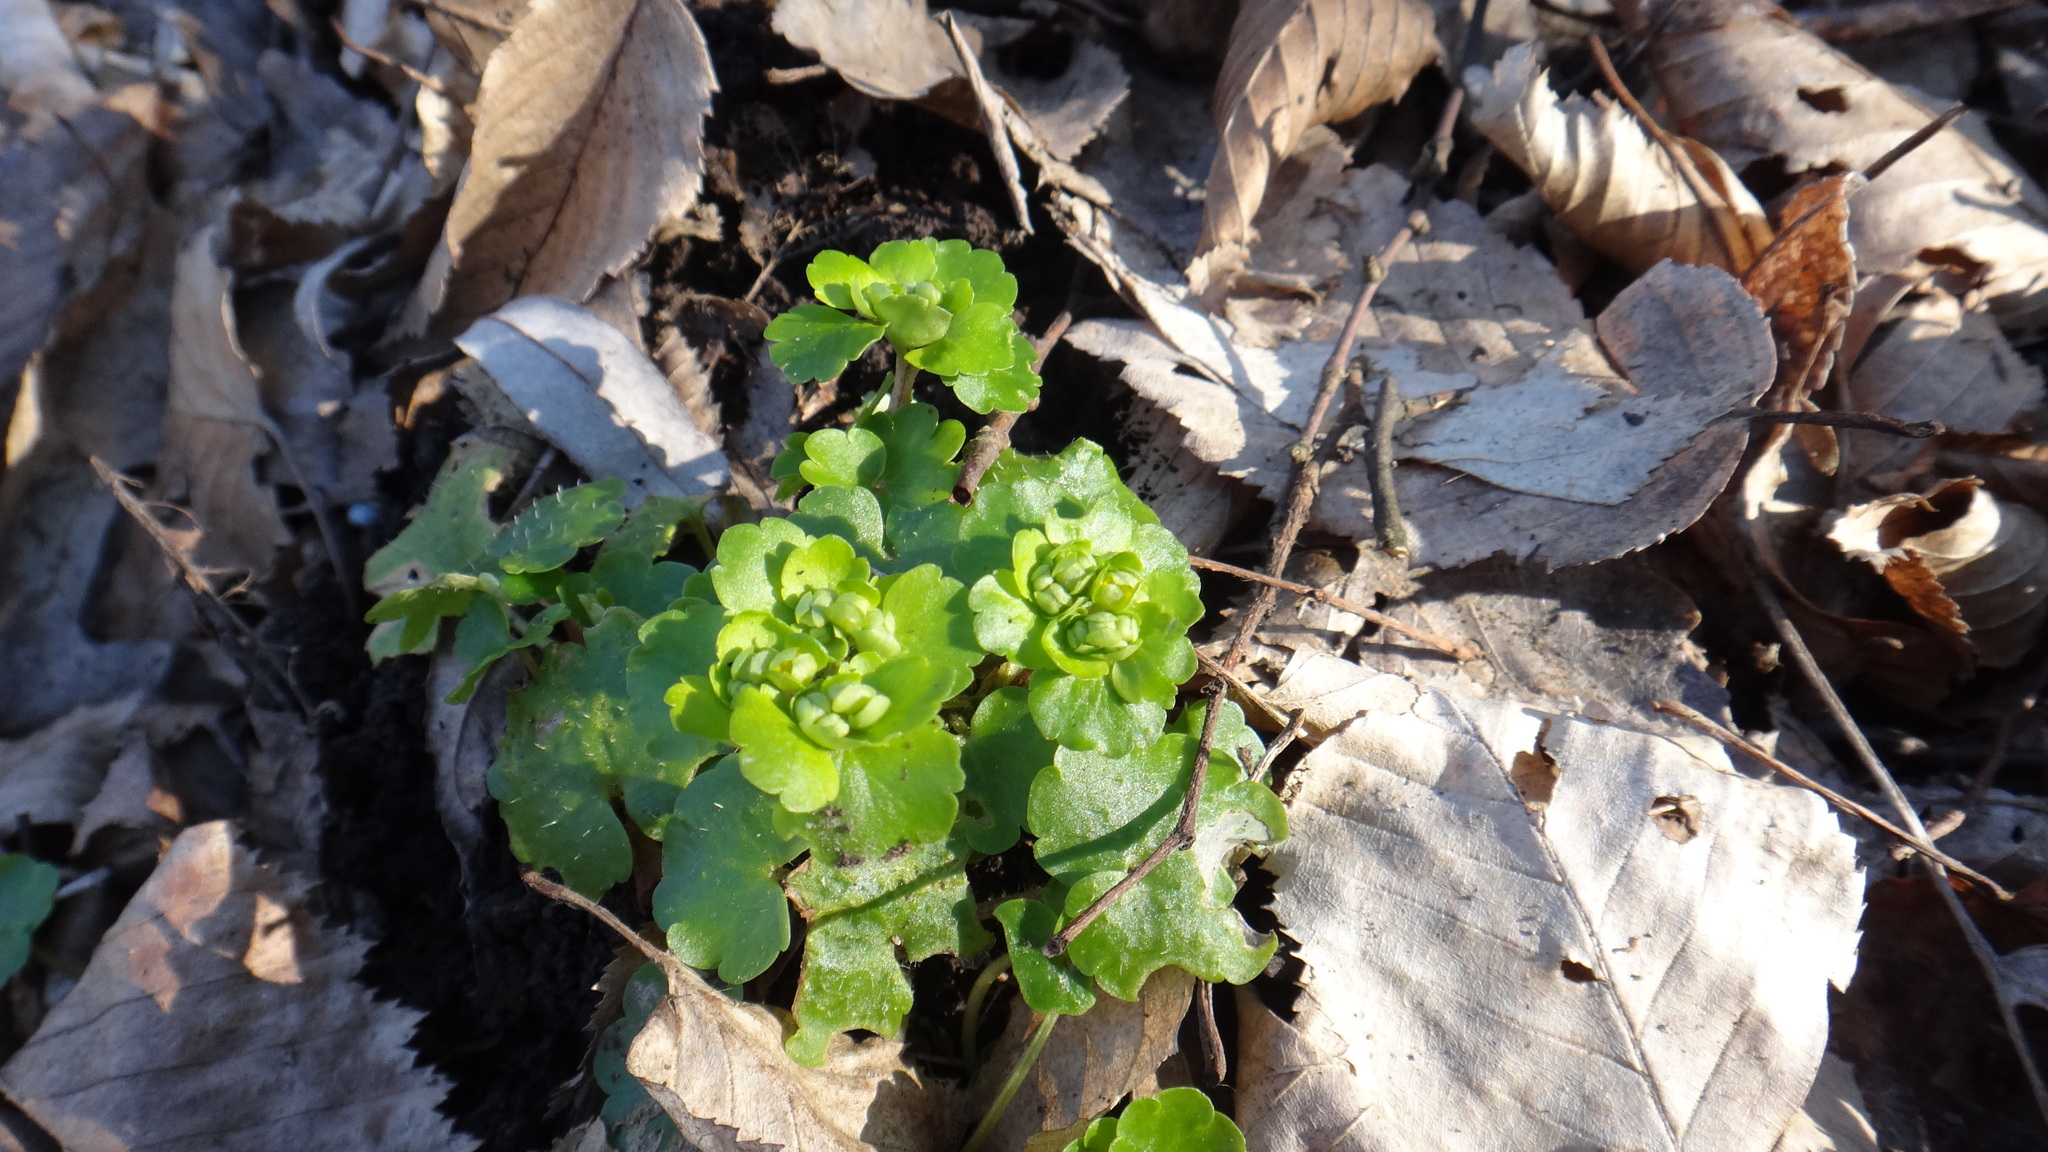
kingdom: Plantae
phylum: Tracheophyta
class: Magnoliopsida
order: Saxifragales
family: Saxifragaceae
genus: Chrysosplenium
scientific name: Chrysosplenium alternifolium
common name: Alternate-leaved golden-saxifrage
